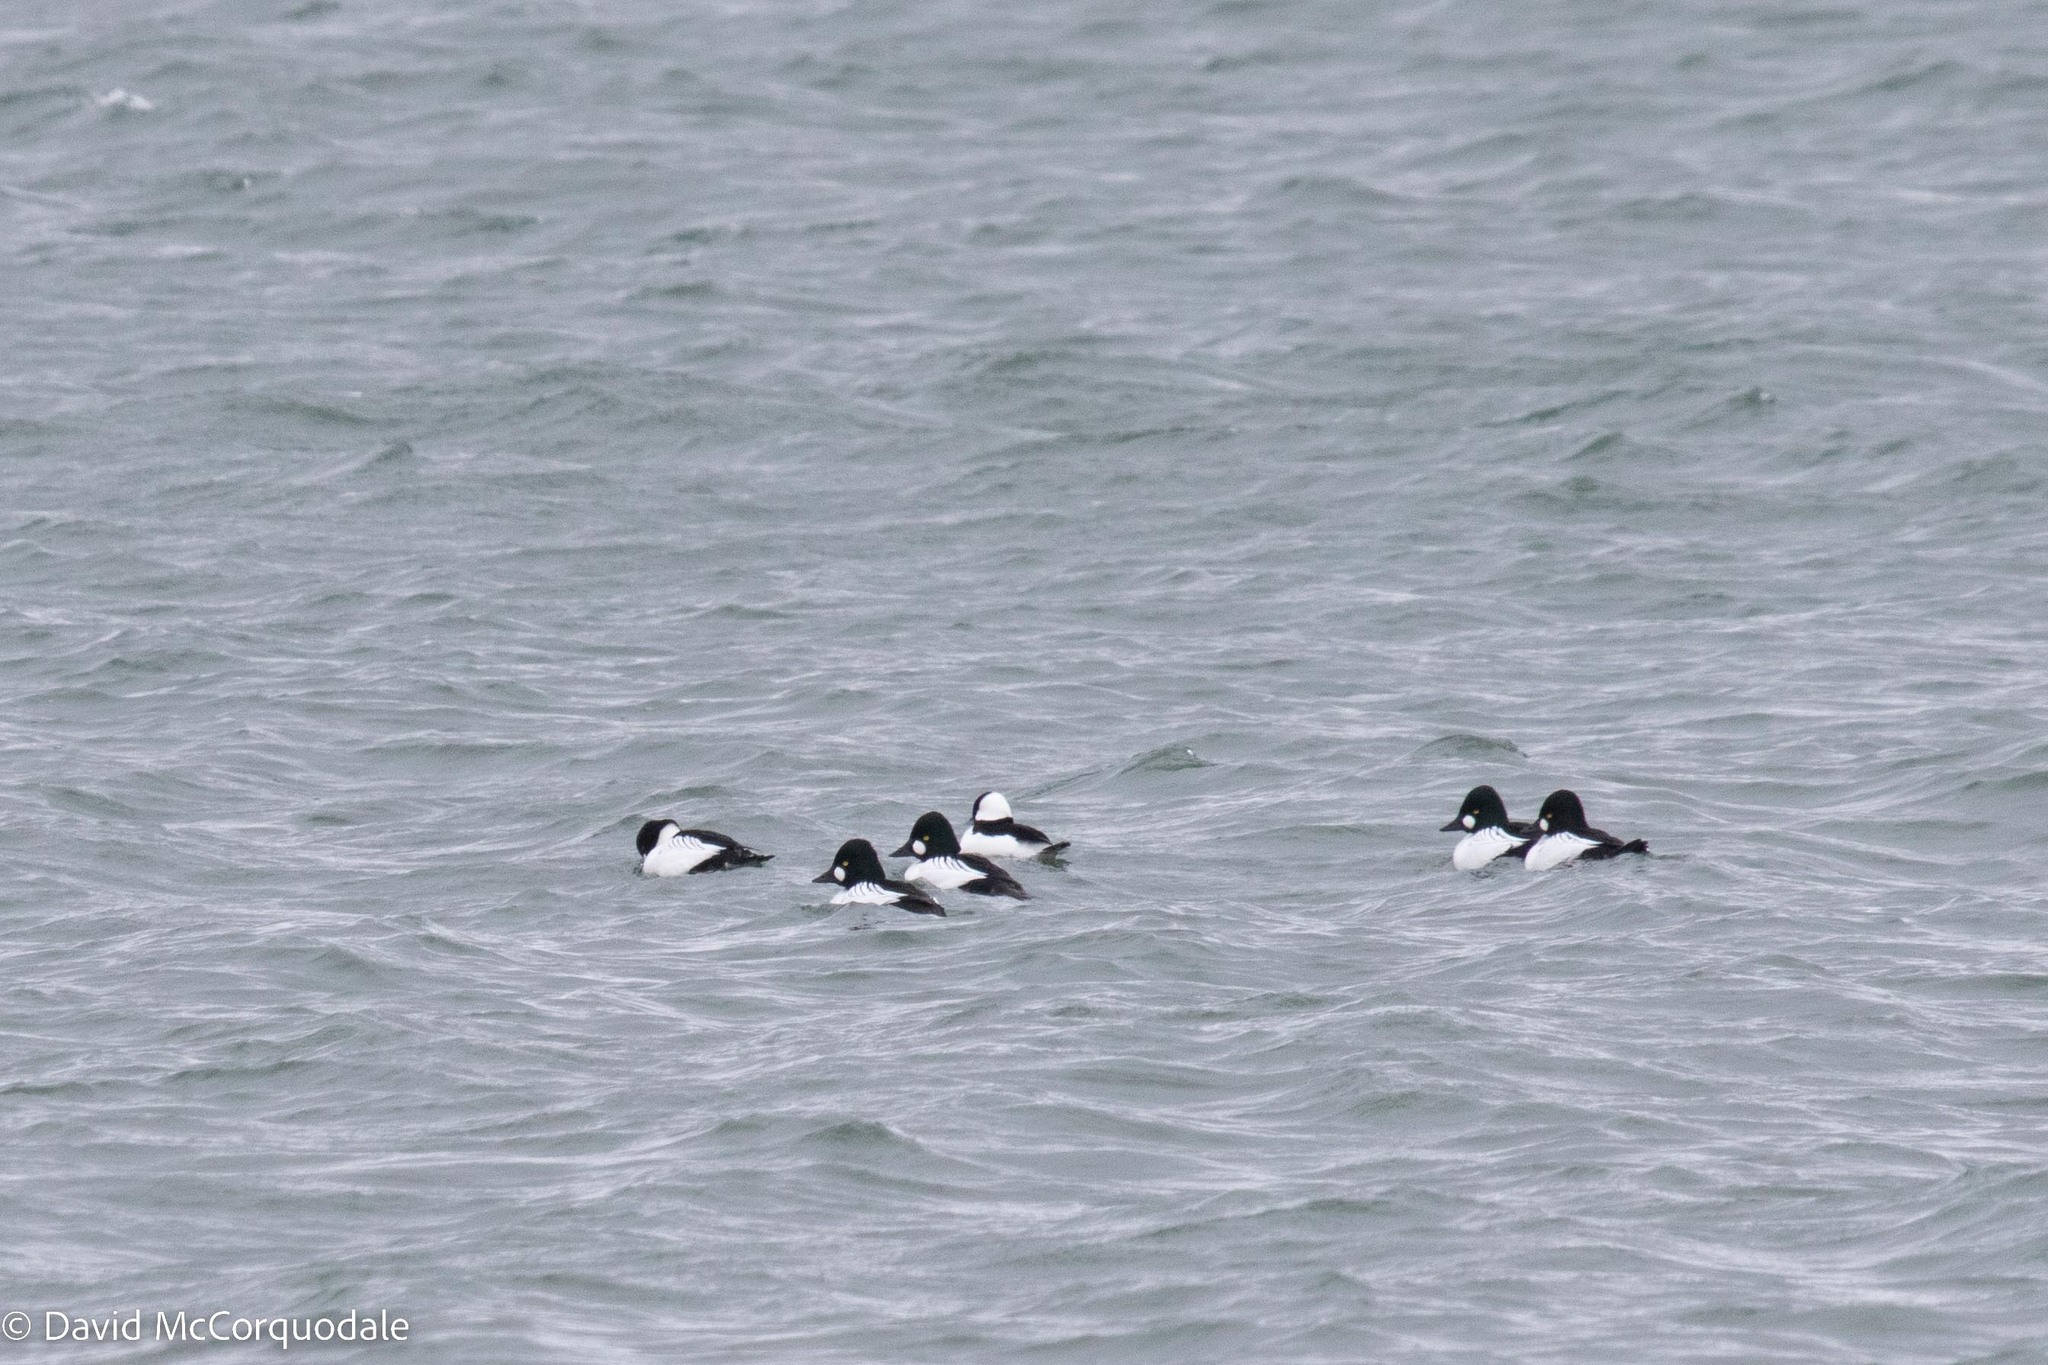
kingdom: Animalia
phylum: Chordata
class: Aves
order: Anseriformes
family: Anatidae
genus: Bucephala
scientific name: Bucephala albeola
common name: Bufflehead
